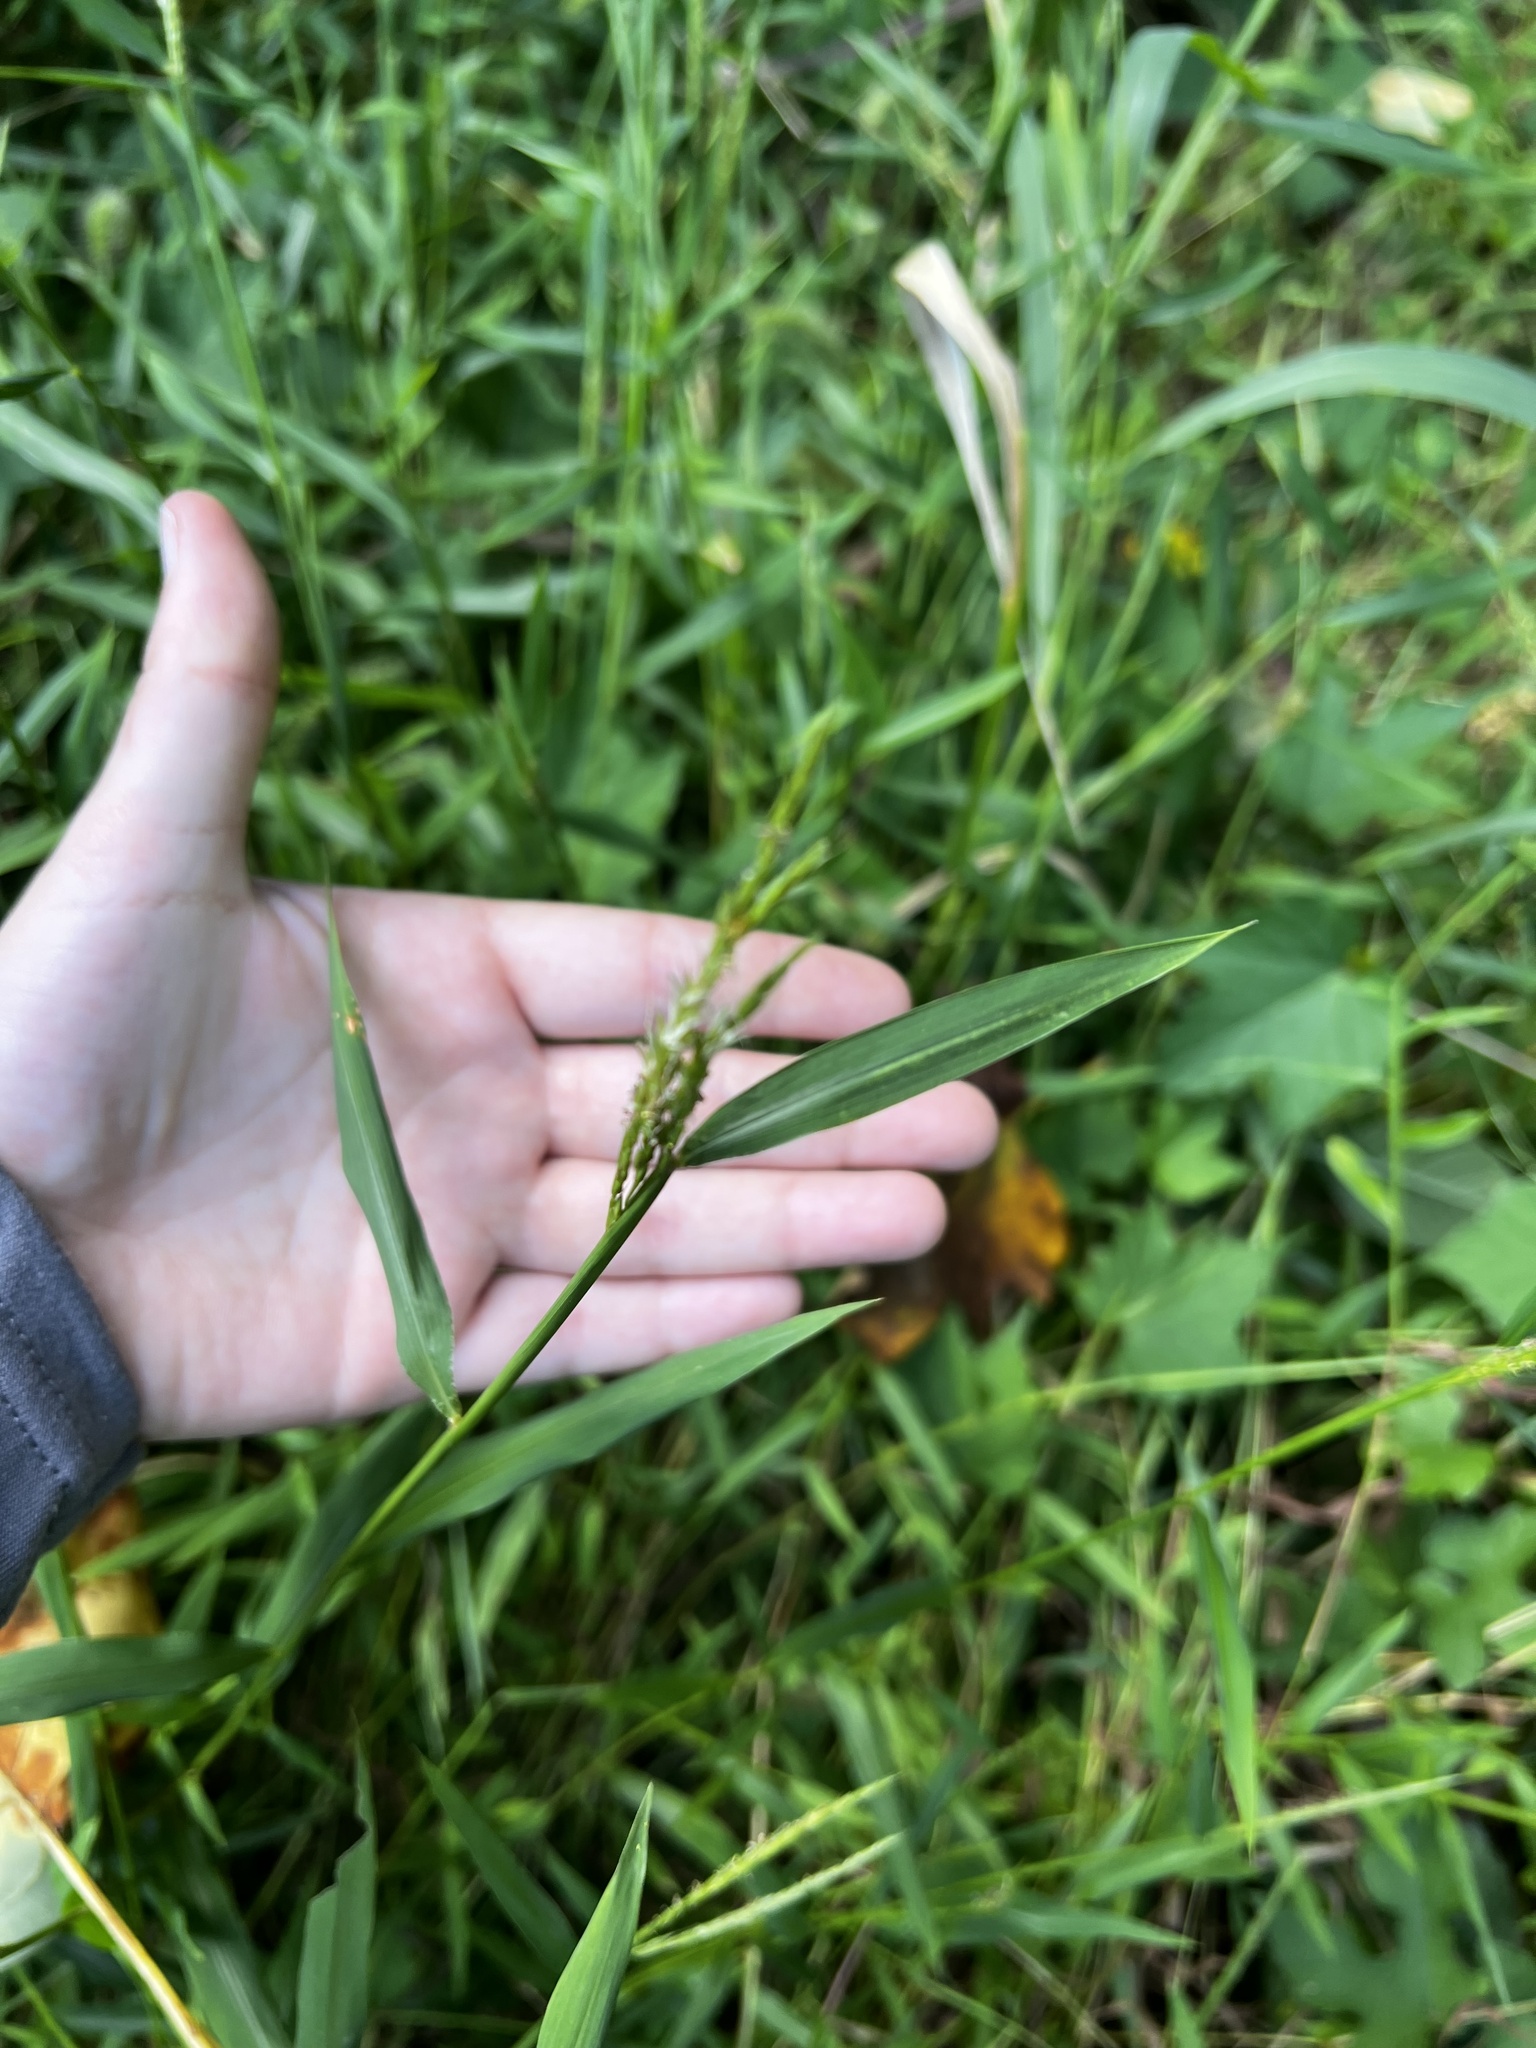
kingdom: Plantae
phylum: Tracheophyta
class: Liliopsida
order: Poales
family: Poaceae
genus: Microstegium
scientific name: Microstegium vimineum
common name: Japanese stiltgrass
